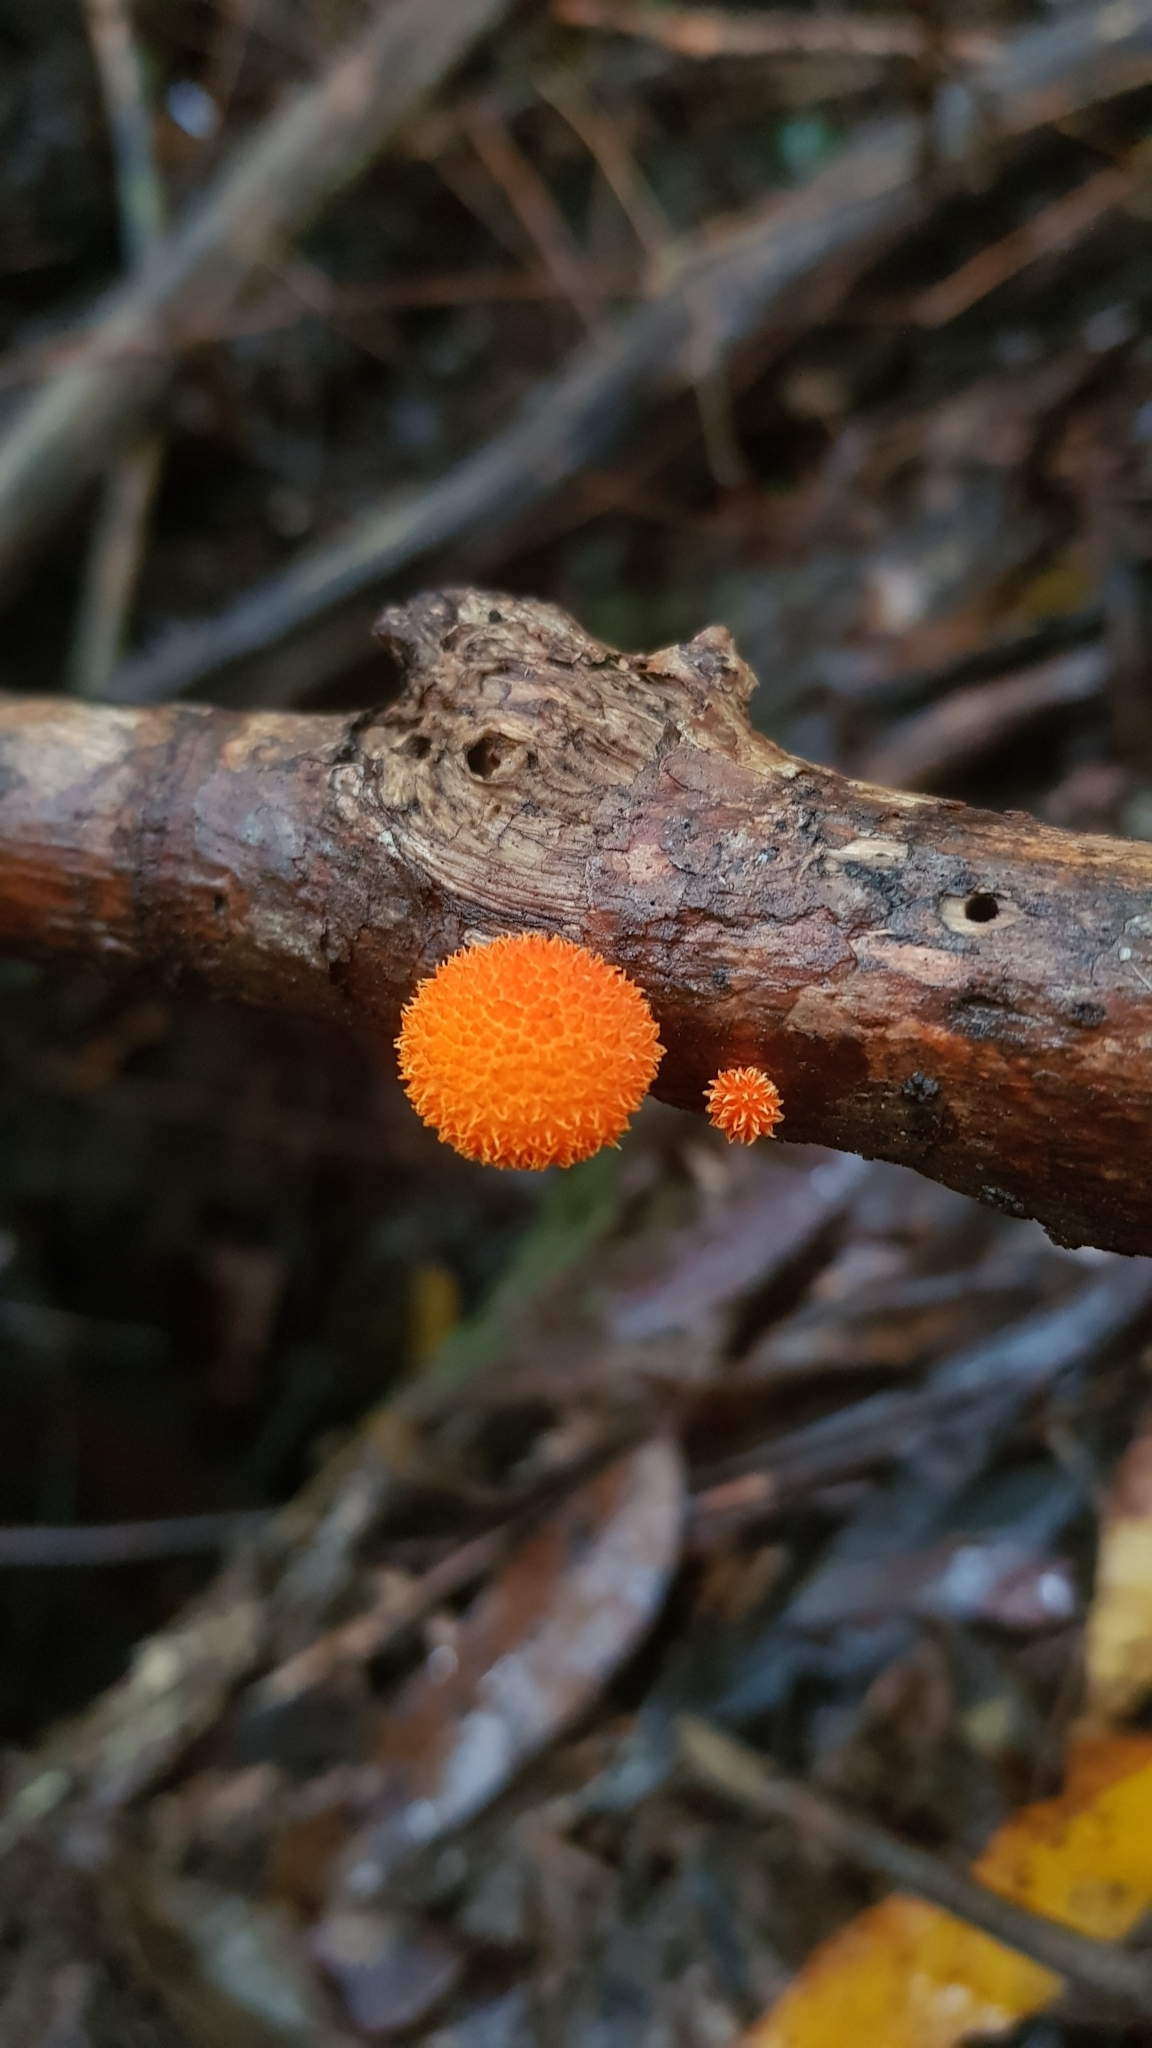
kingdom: Fungi
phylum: Basidiomycota
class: Agaricomycetes
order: Agaricales
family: Physalacriaceae
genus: Cyptotrama
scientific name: Cyptotrama asprata
